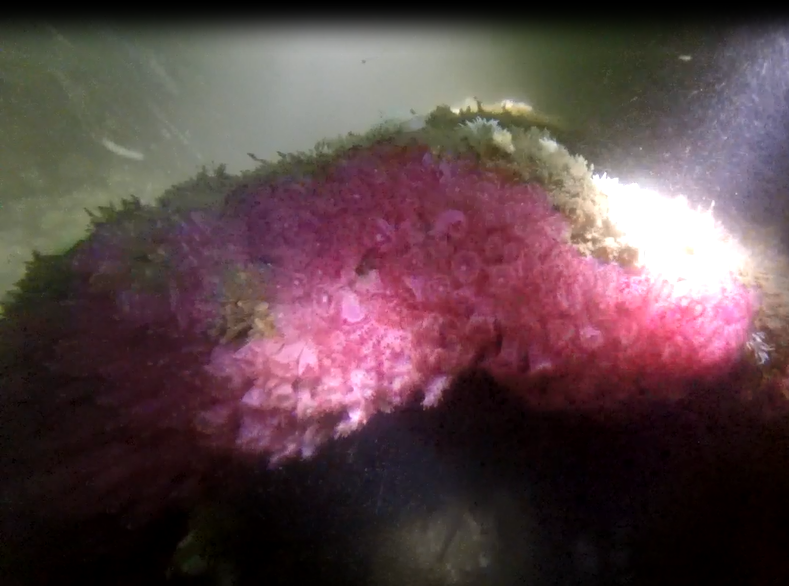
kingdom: Animalia
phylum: Cnidaria
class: Anthozoa
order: Corallimorpharia
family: Corallimorphidae
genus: Corynactis
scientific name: Corynactis viridis
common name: Jewel anemone
